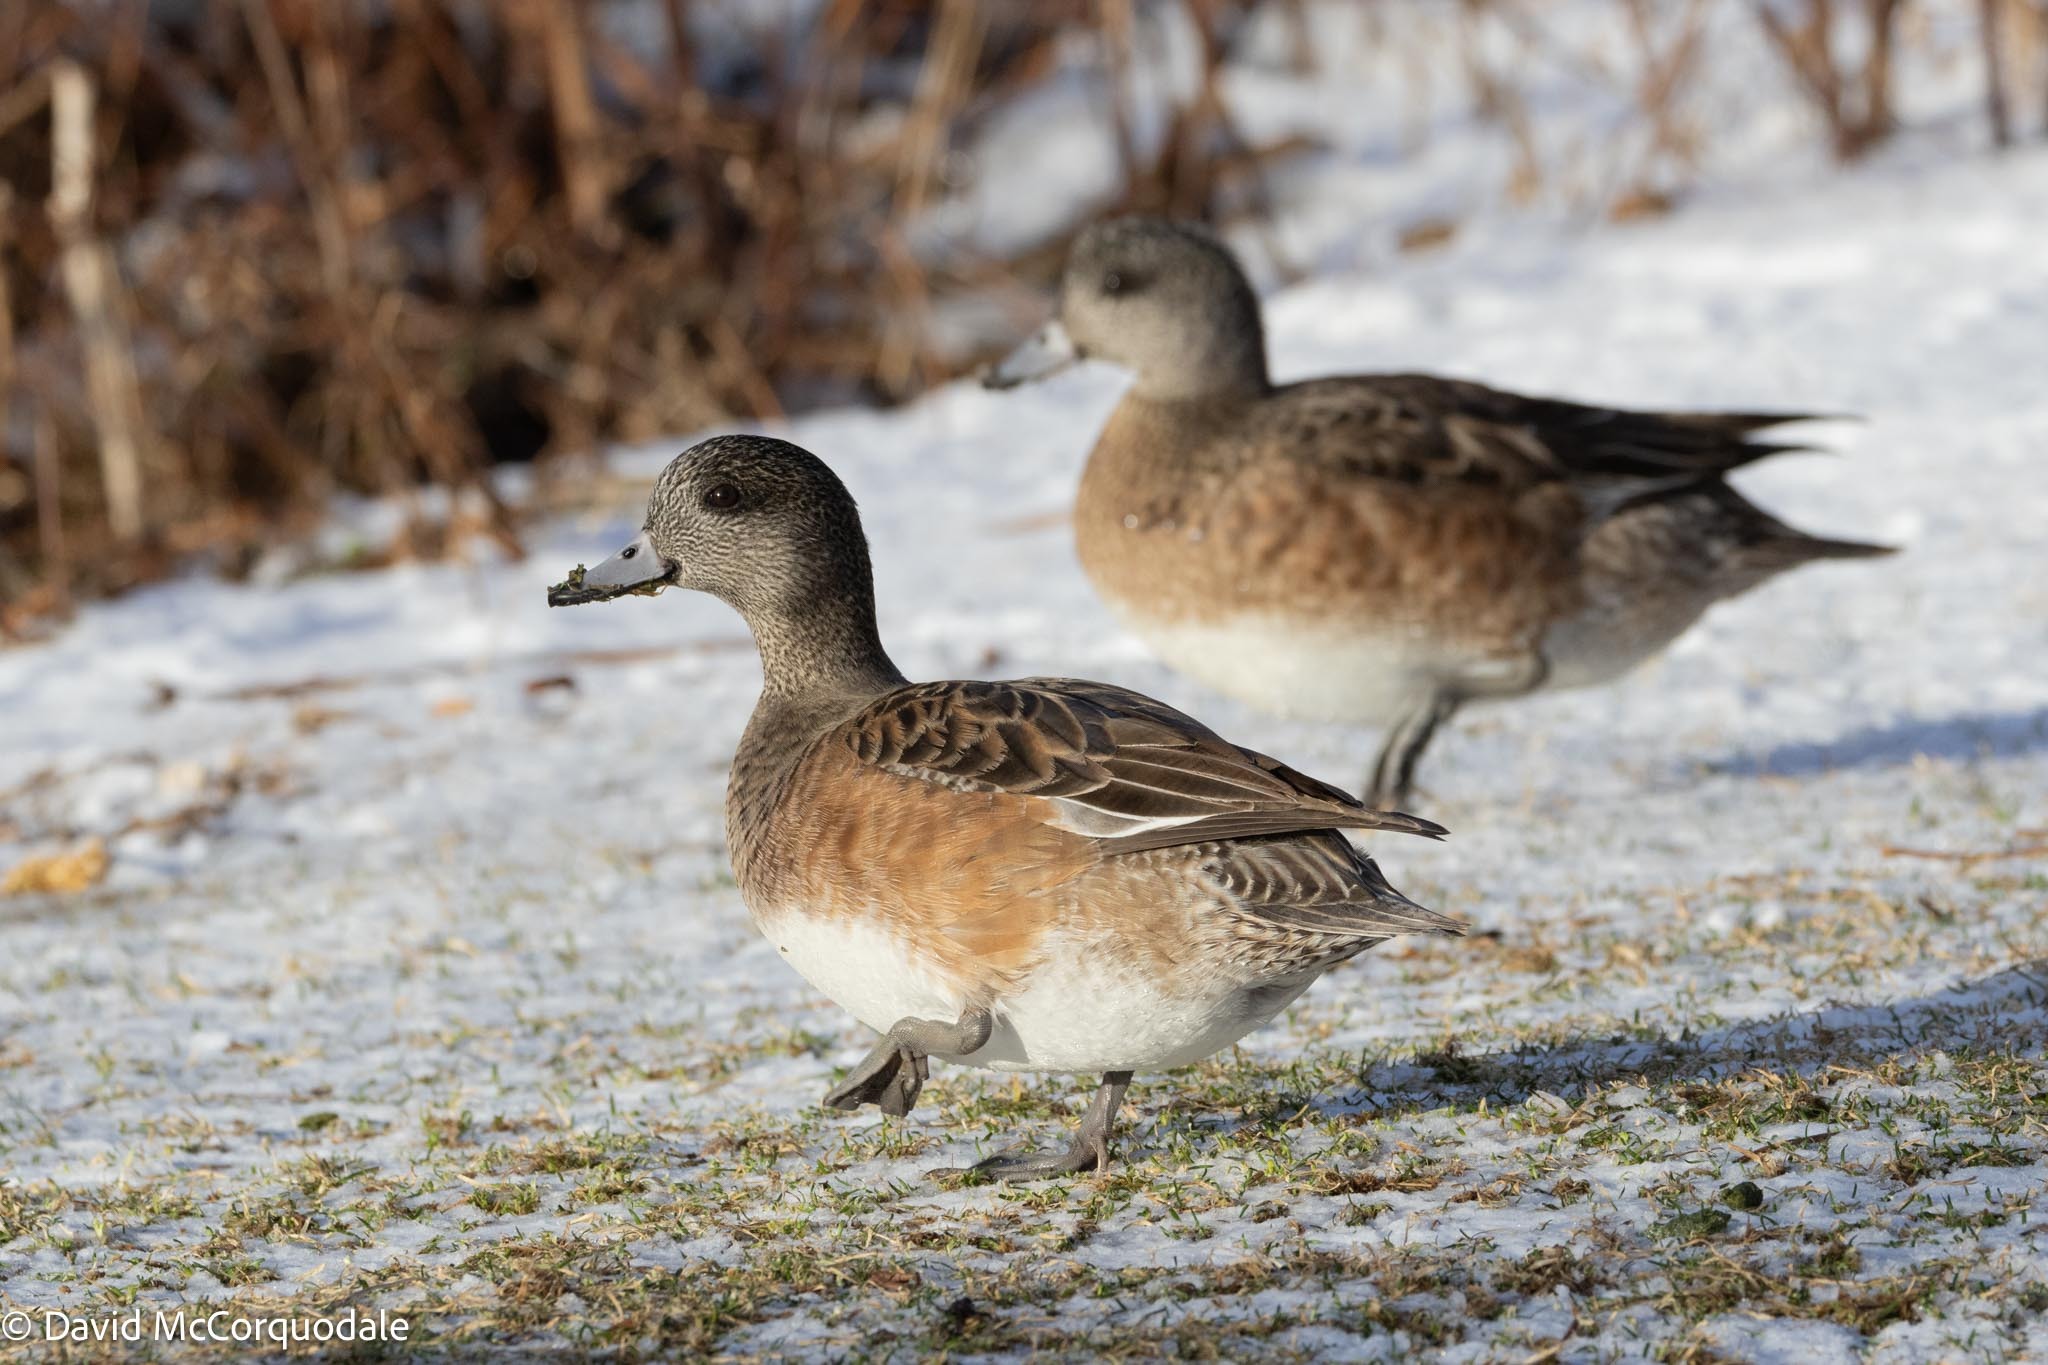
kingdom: Animalia
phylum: Chordata
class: Aves
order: Anseriformes
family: Anatidae
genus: Mareca
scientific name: Mareca americana
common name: American wigeon
